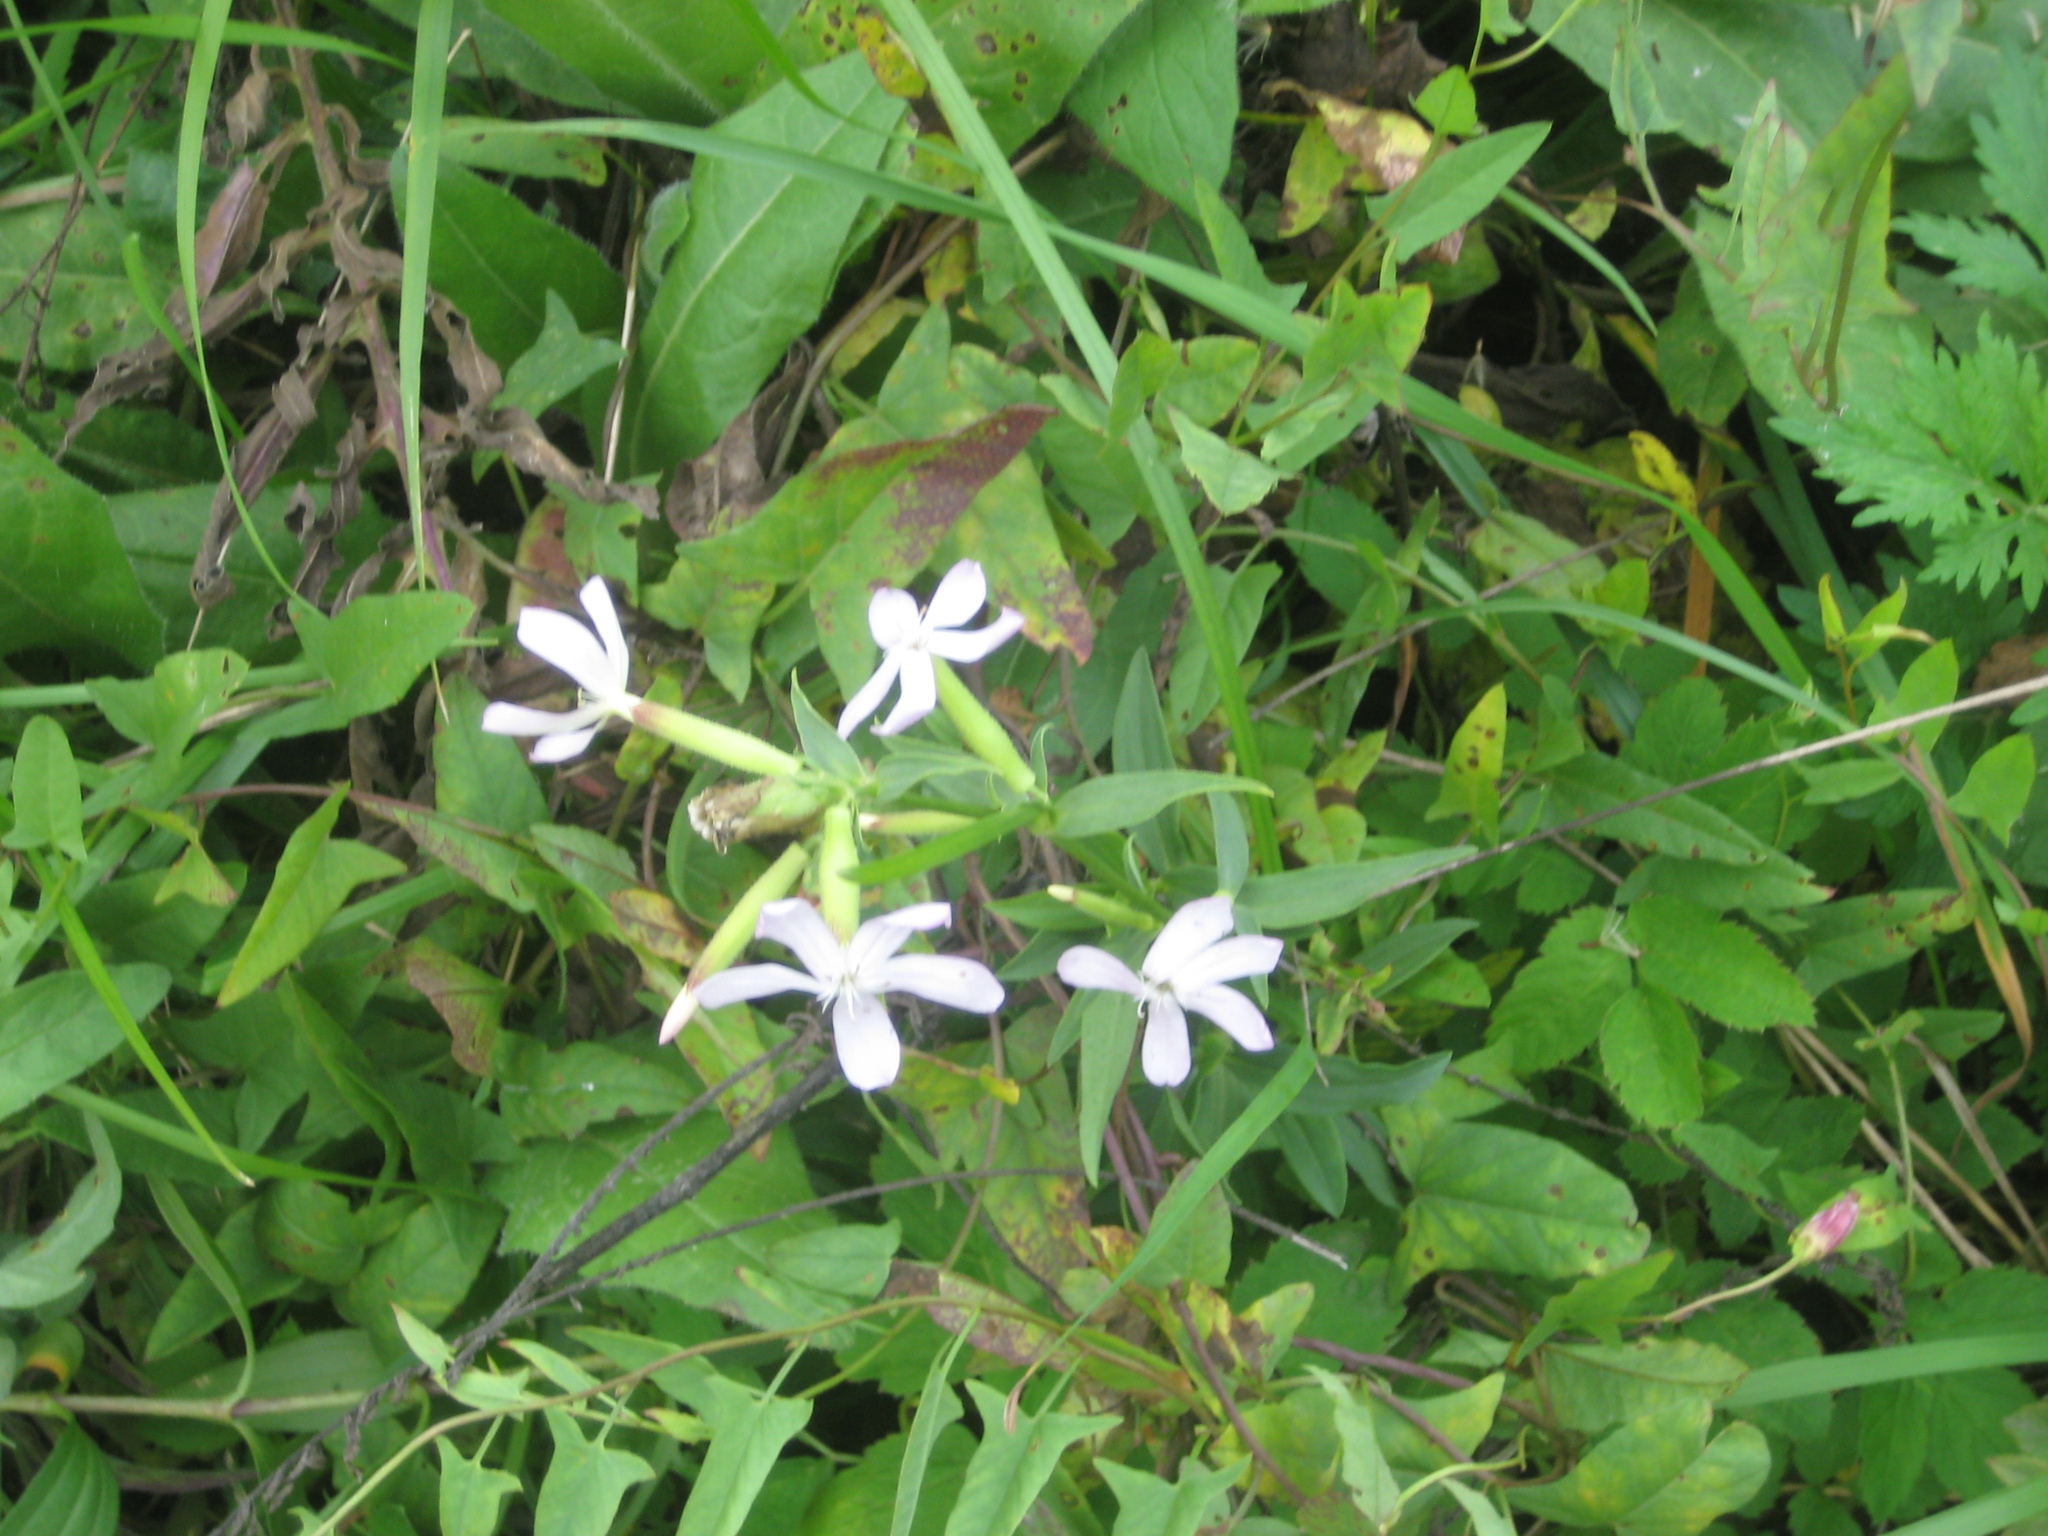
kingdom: Plantae
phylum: Tracheophyta
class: Magnoliopsida
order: Caryophyllales
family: Caryophyllaceae
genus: Saponaria
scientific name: Saponaria officinalis
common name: Soapwort
